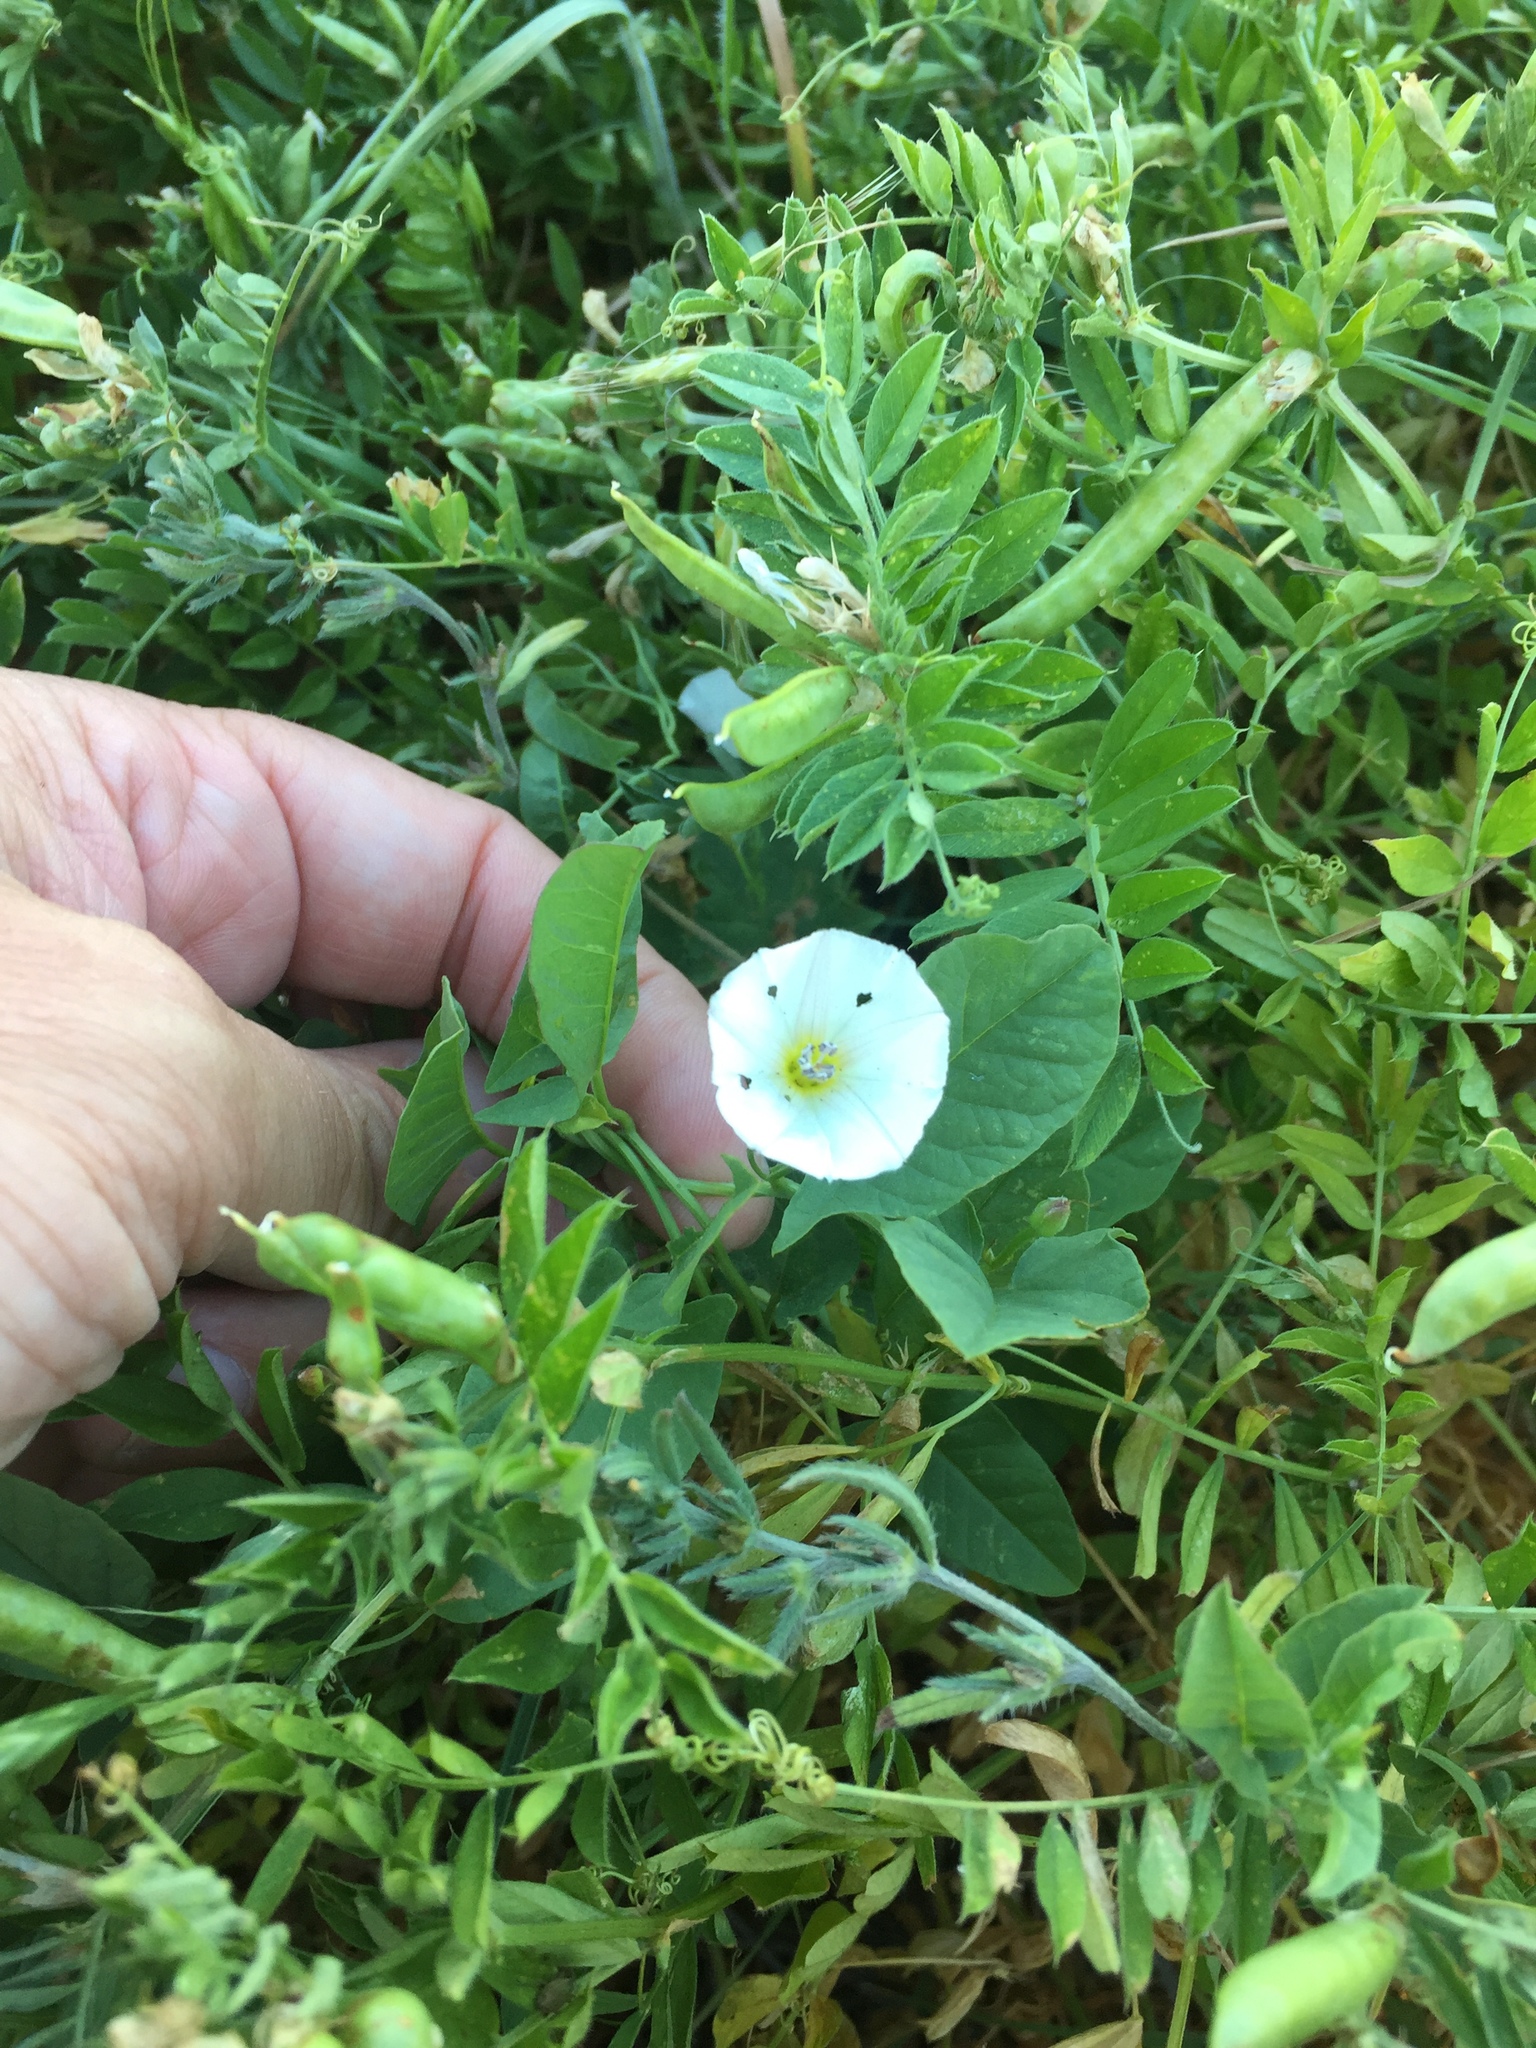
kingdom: Plantae
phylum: Tracheophyta
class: Magnoliopsida
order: Solanales
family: Convolvulaceae
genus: Convolvulus
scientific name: Convolvulus arvensis
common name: Field bindweed
